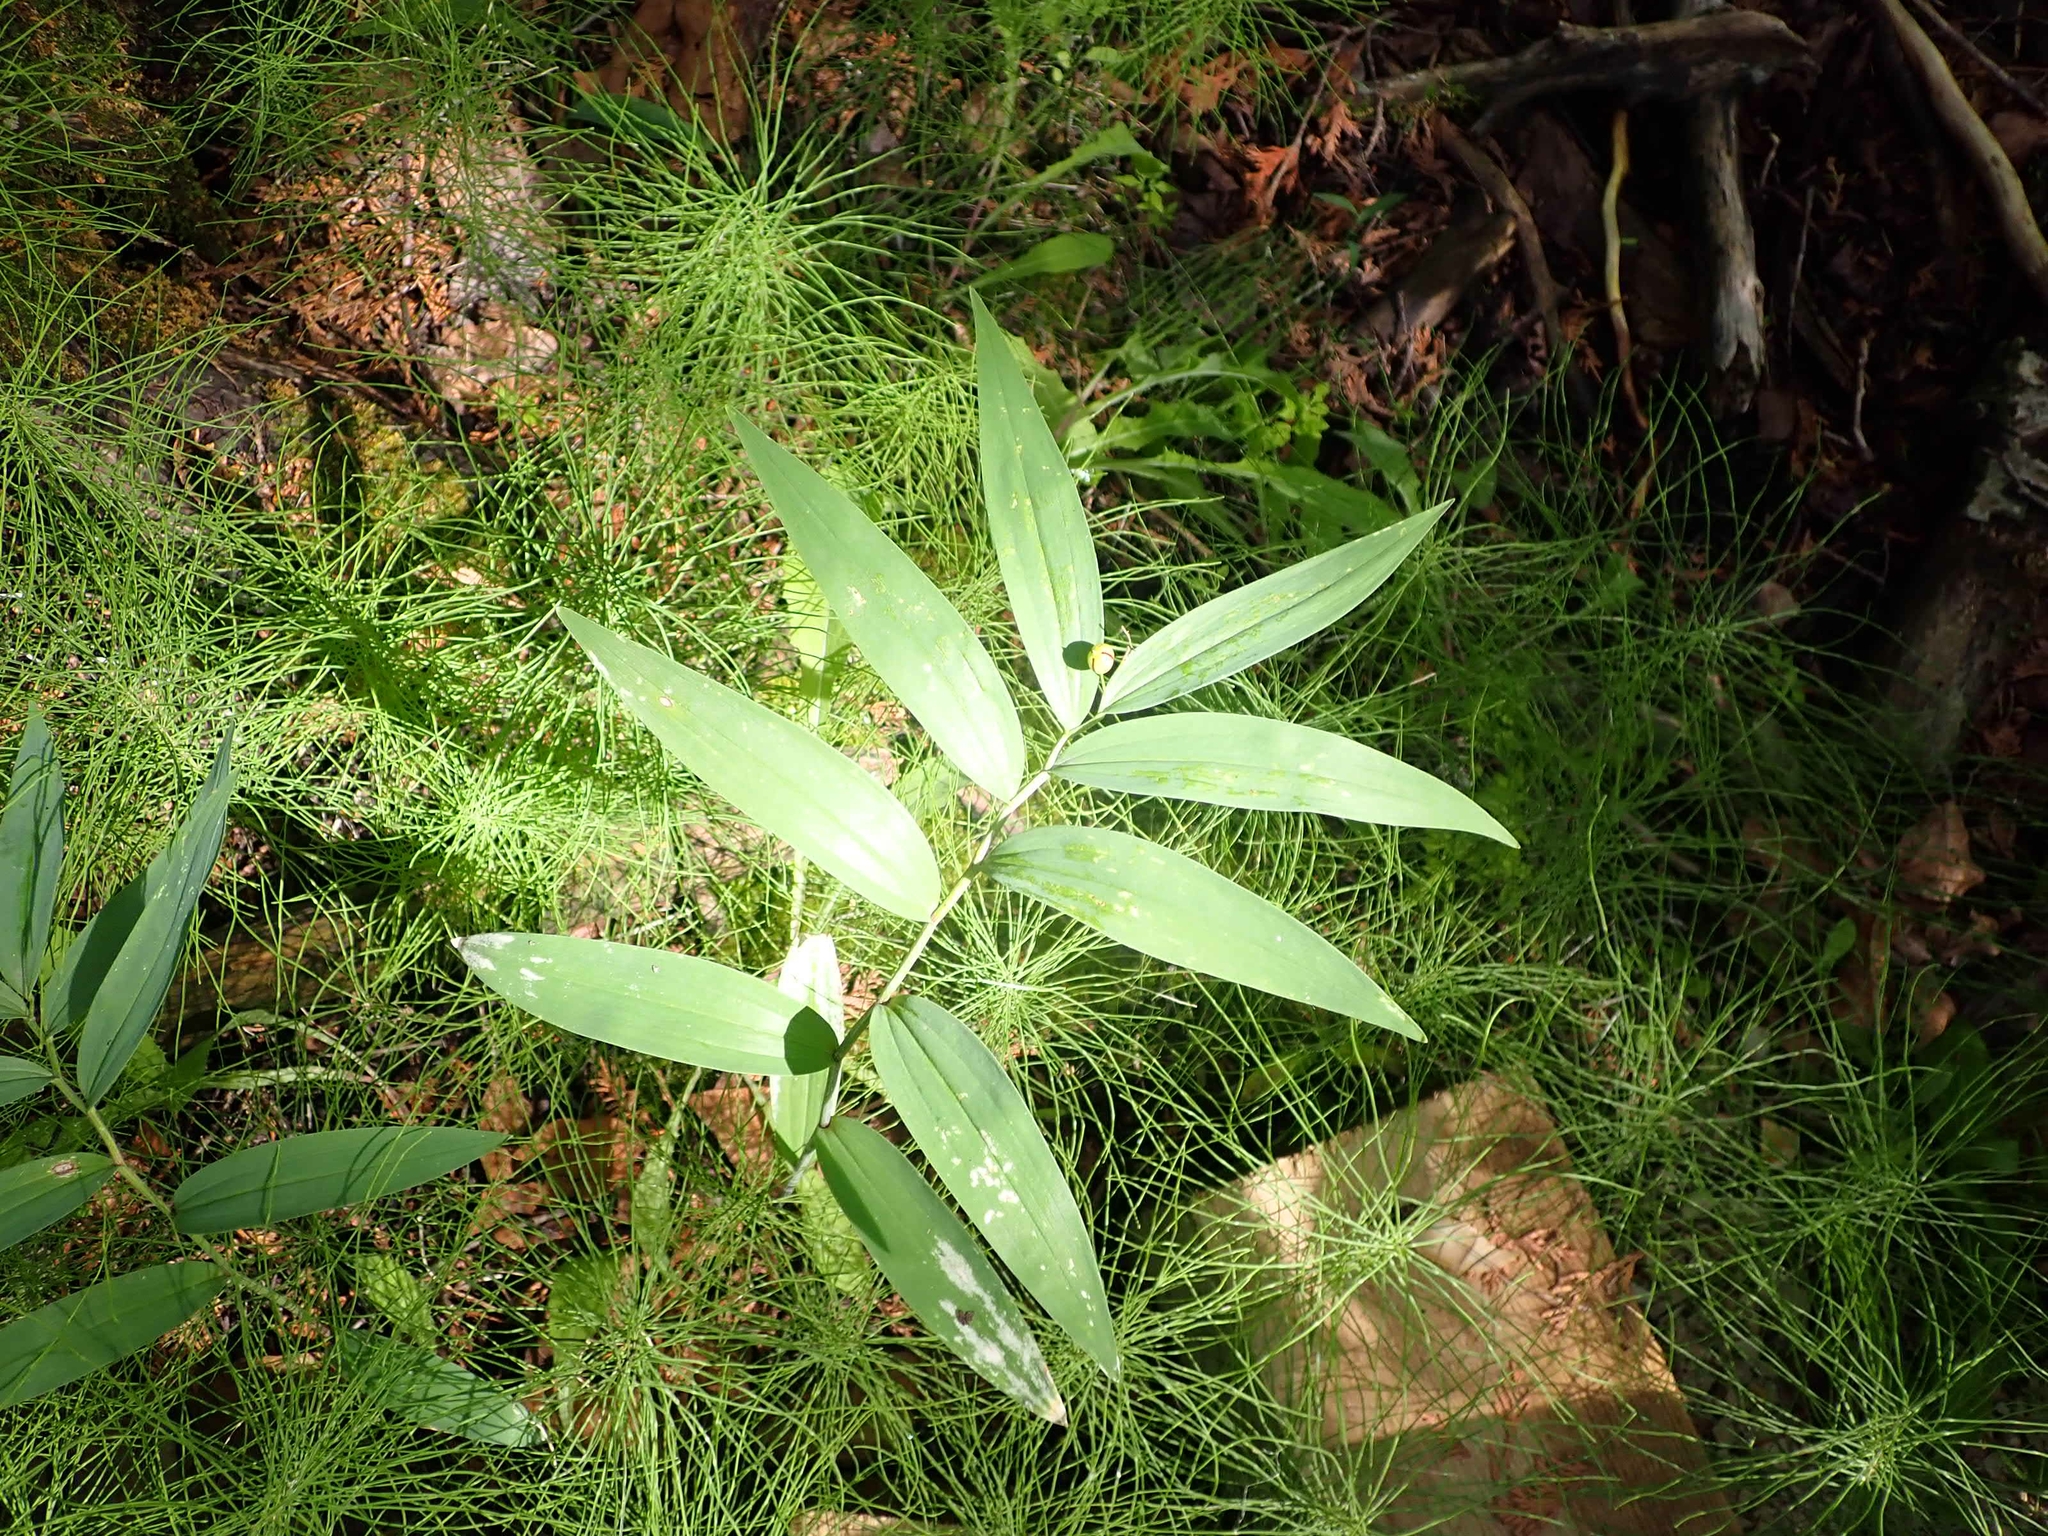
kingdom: Plantae
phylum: Tracheophyta
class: Liliopsida
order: Asparagales
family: Asparagaceae
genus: Maianthemum
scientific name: Maianthemum stellatum
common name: Little false solomon's seal
